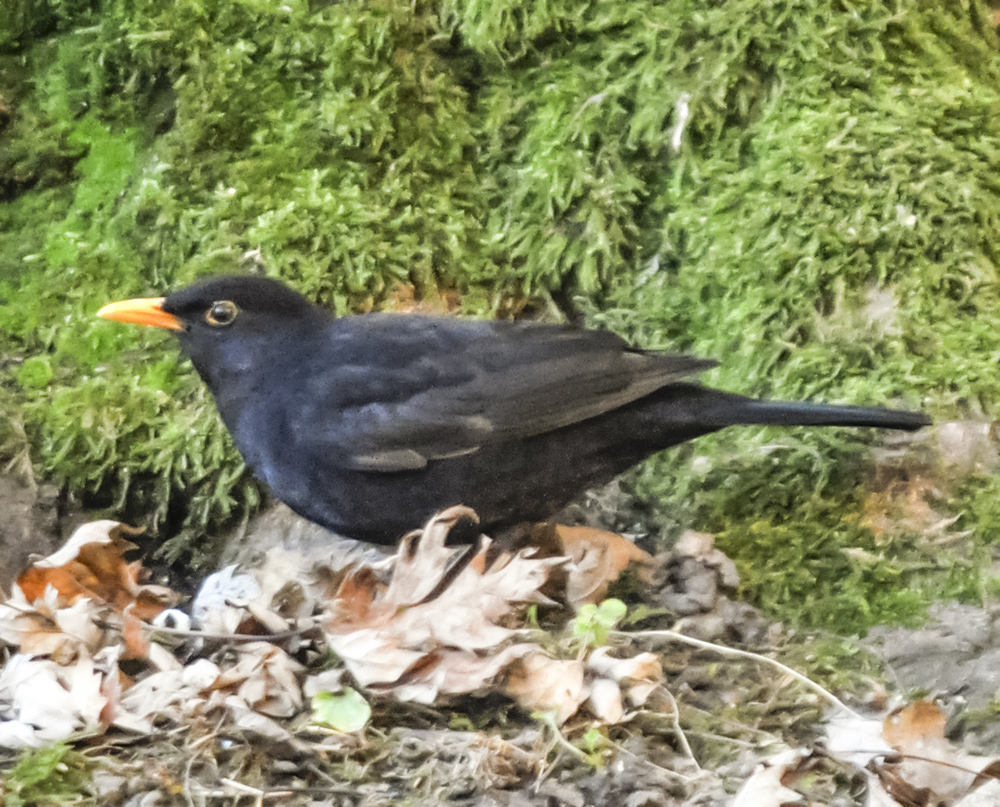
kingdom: Animalia
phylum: Chordata
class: Aves
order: Passeriformes
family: Turdidae
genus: Turdus
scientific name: Turdus merula
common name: Common blackbird
